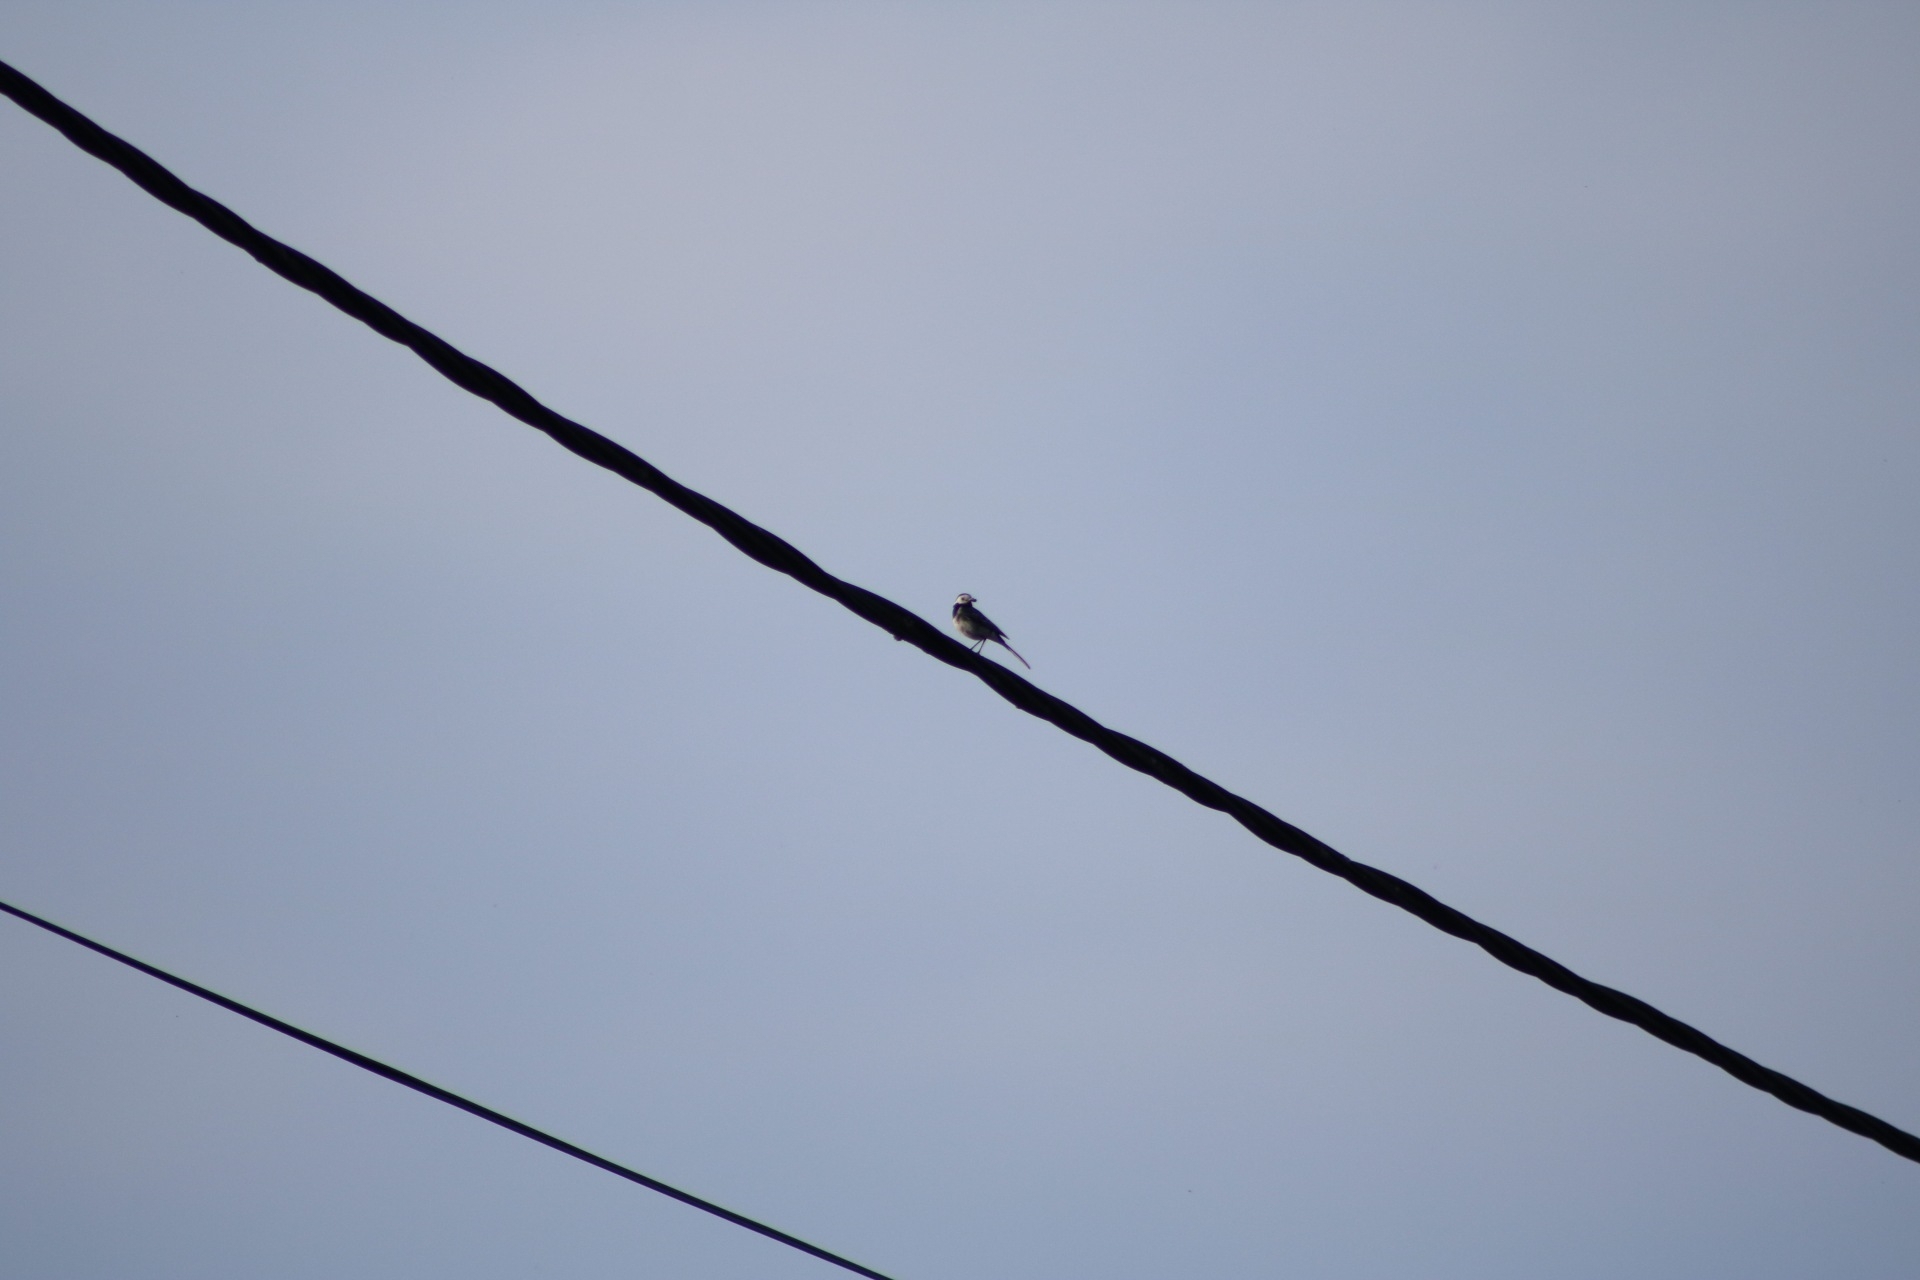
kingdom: Animalia
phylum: Chordata
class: Aves
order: Passeriformes
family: Motacillidae
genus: Motacilla
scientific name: Motacilla alba
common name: White wagtail
